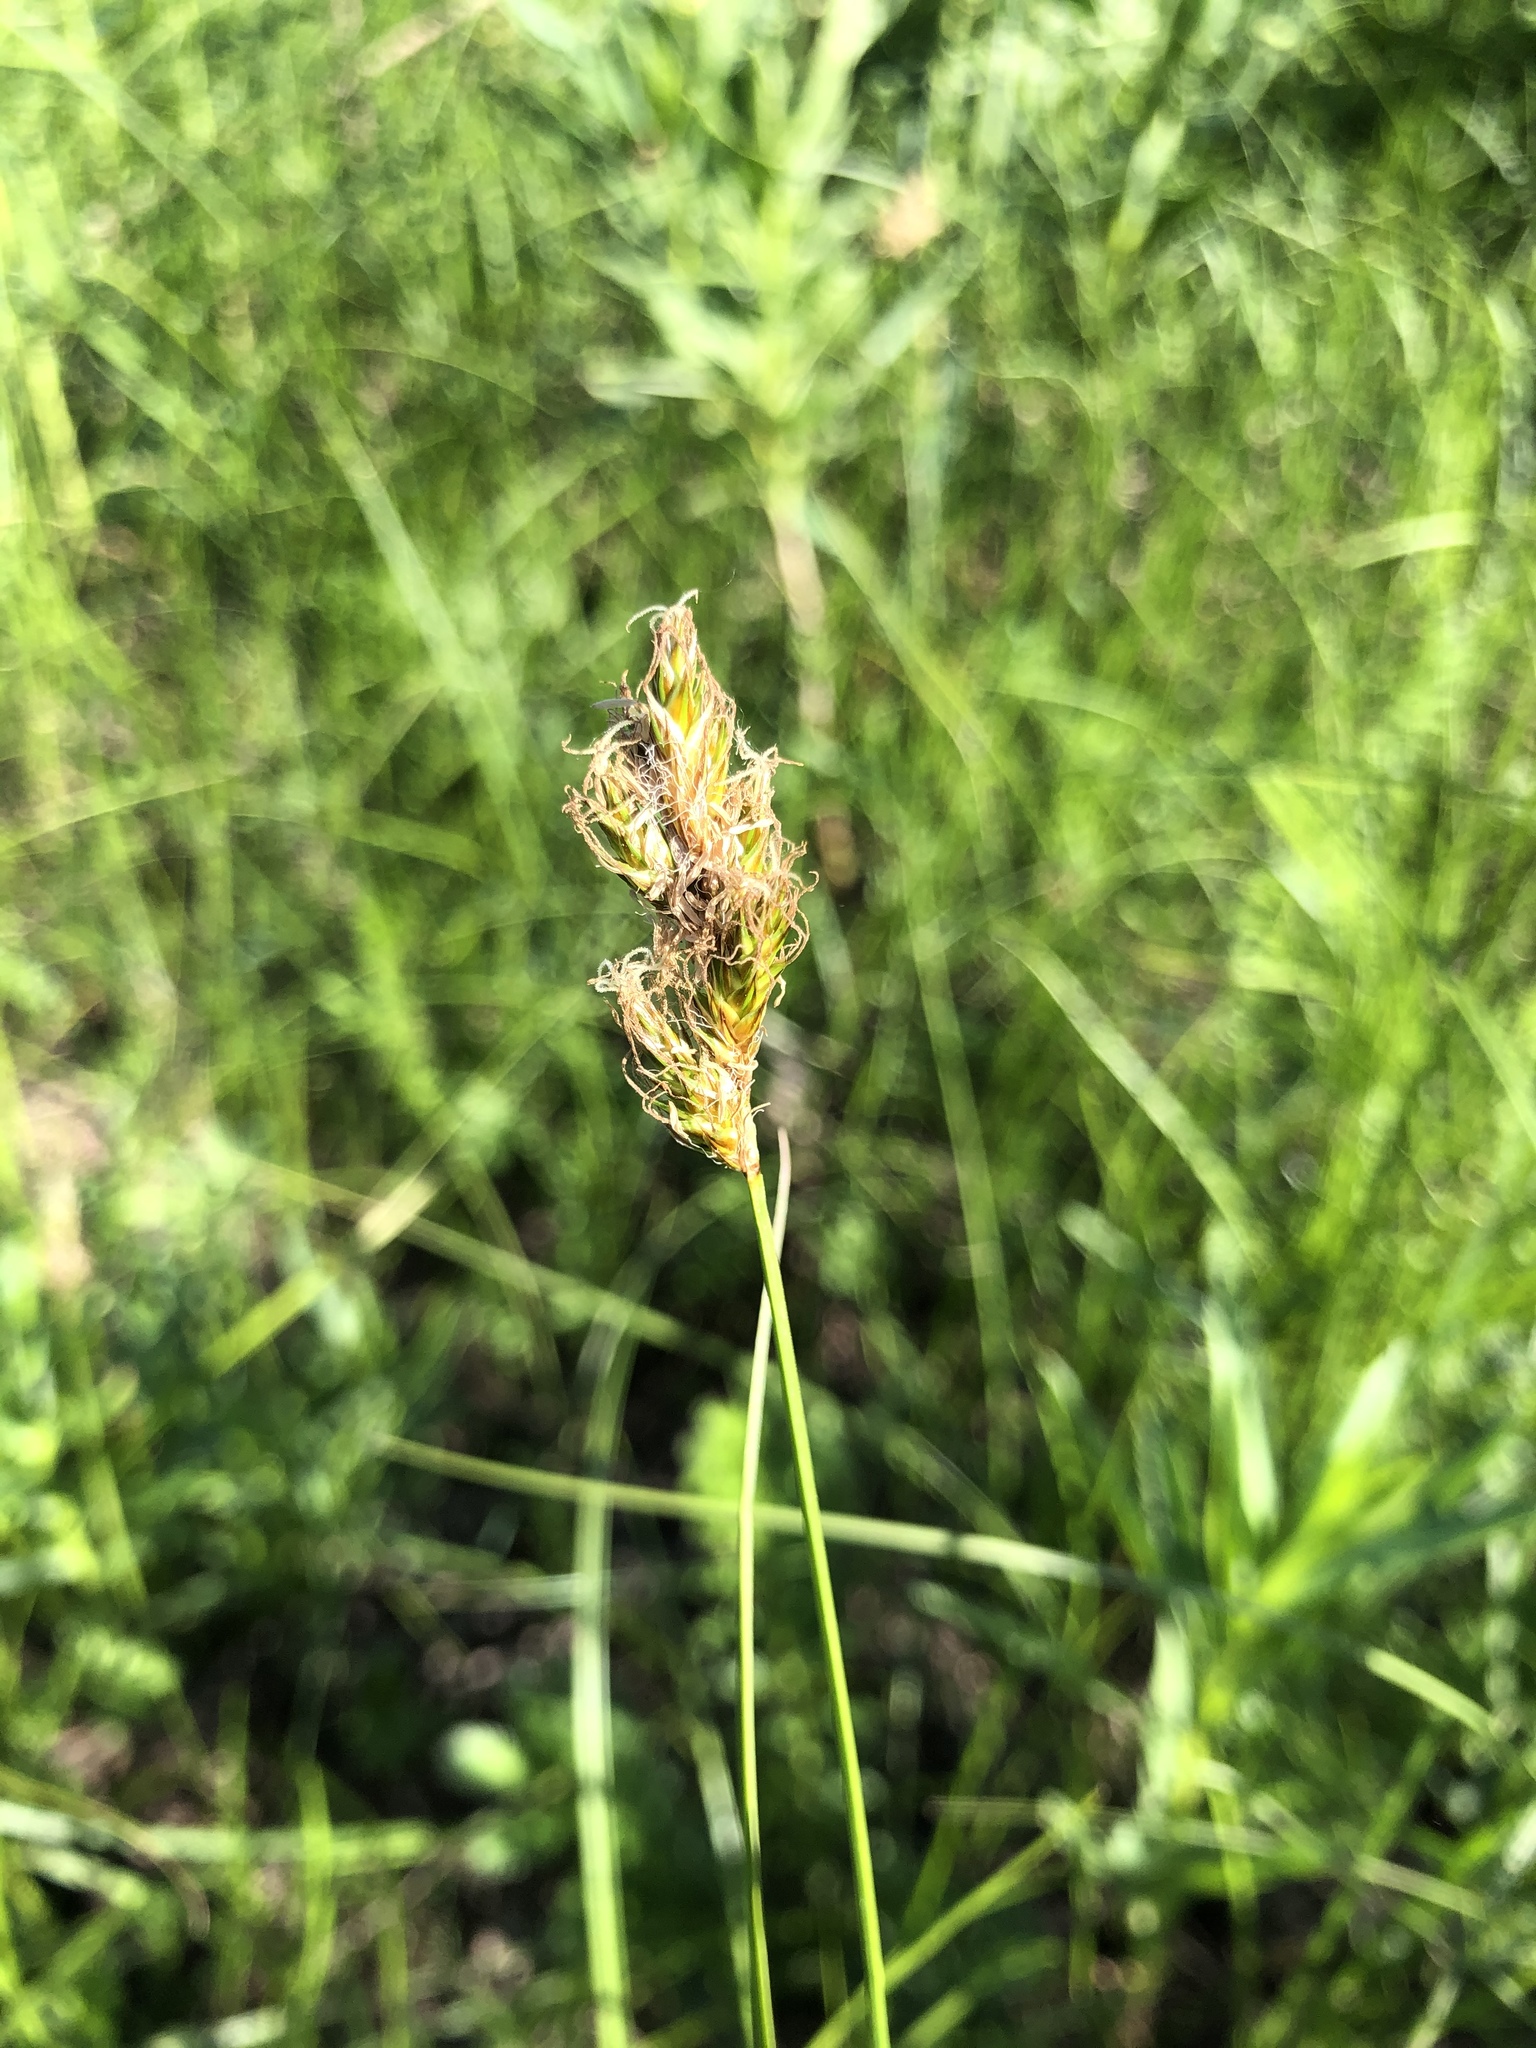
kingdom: Plantae
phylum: Tracheophyta
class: Liliopsida
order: Poales
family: Cyperaceae
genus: Carex
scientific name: Carex leporina
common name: Oval sedge
